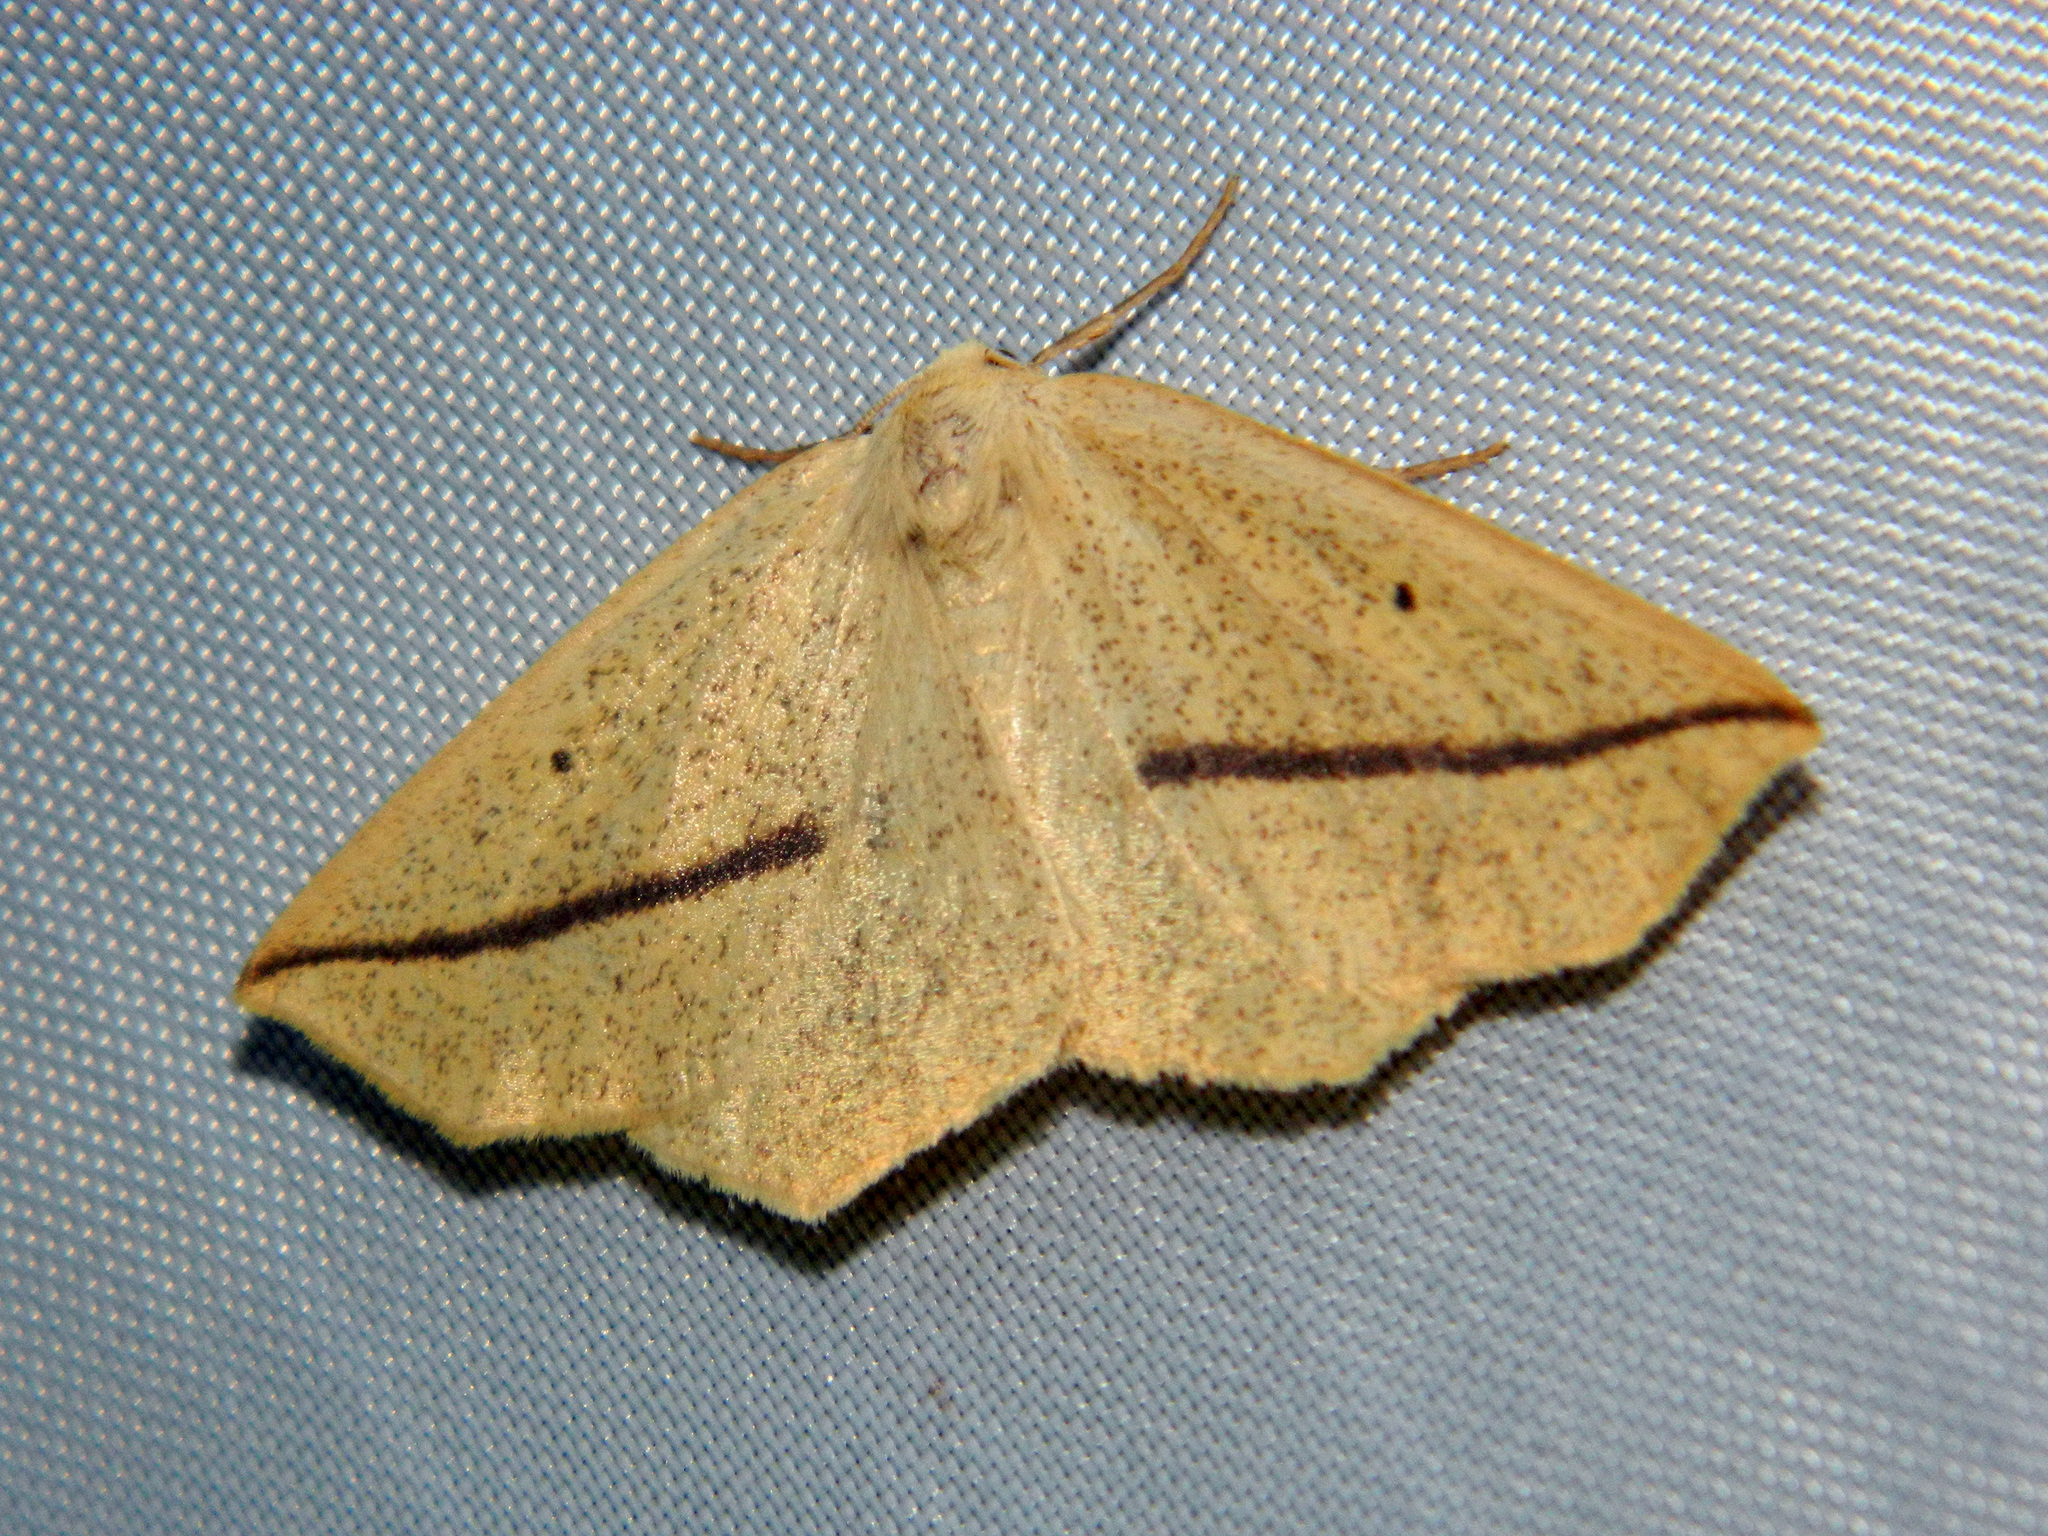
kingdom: Animalia
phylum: Arthropoda
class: Insecta
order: Lepidoptera
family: Geometridae
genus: Tetracis
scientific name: Tetracis crocallata
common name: Yellow slant-line
